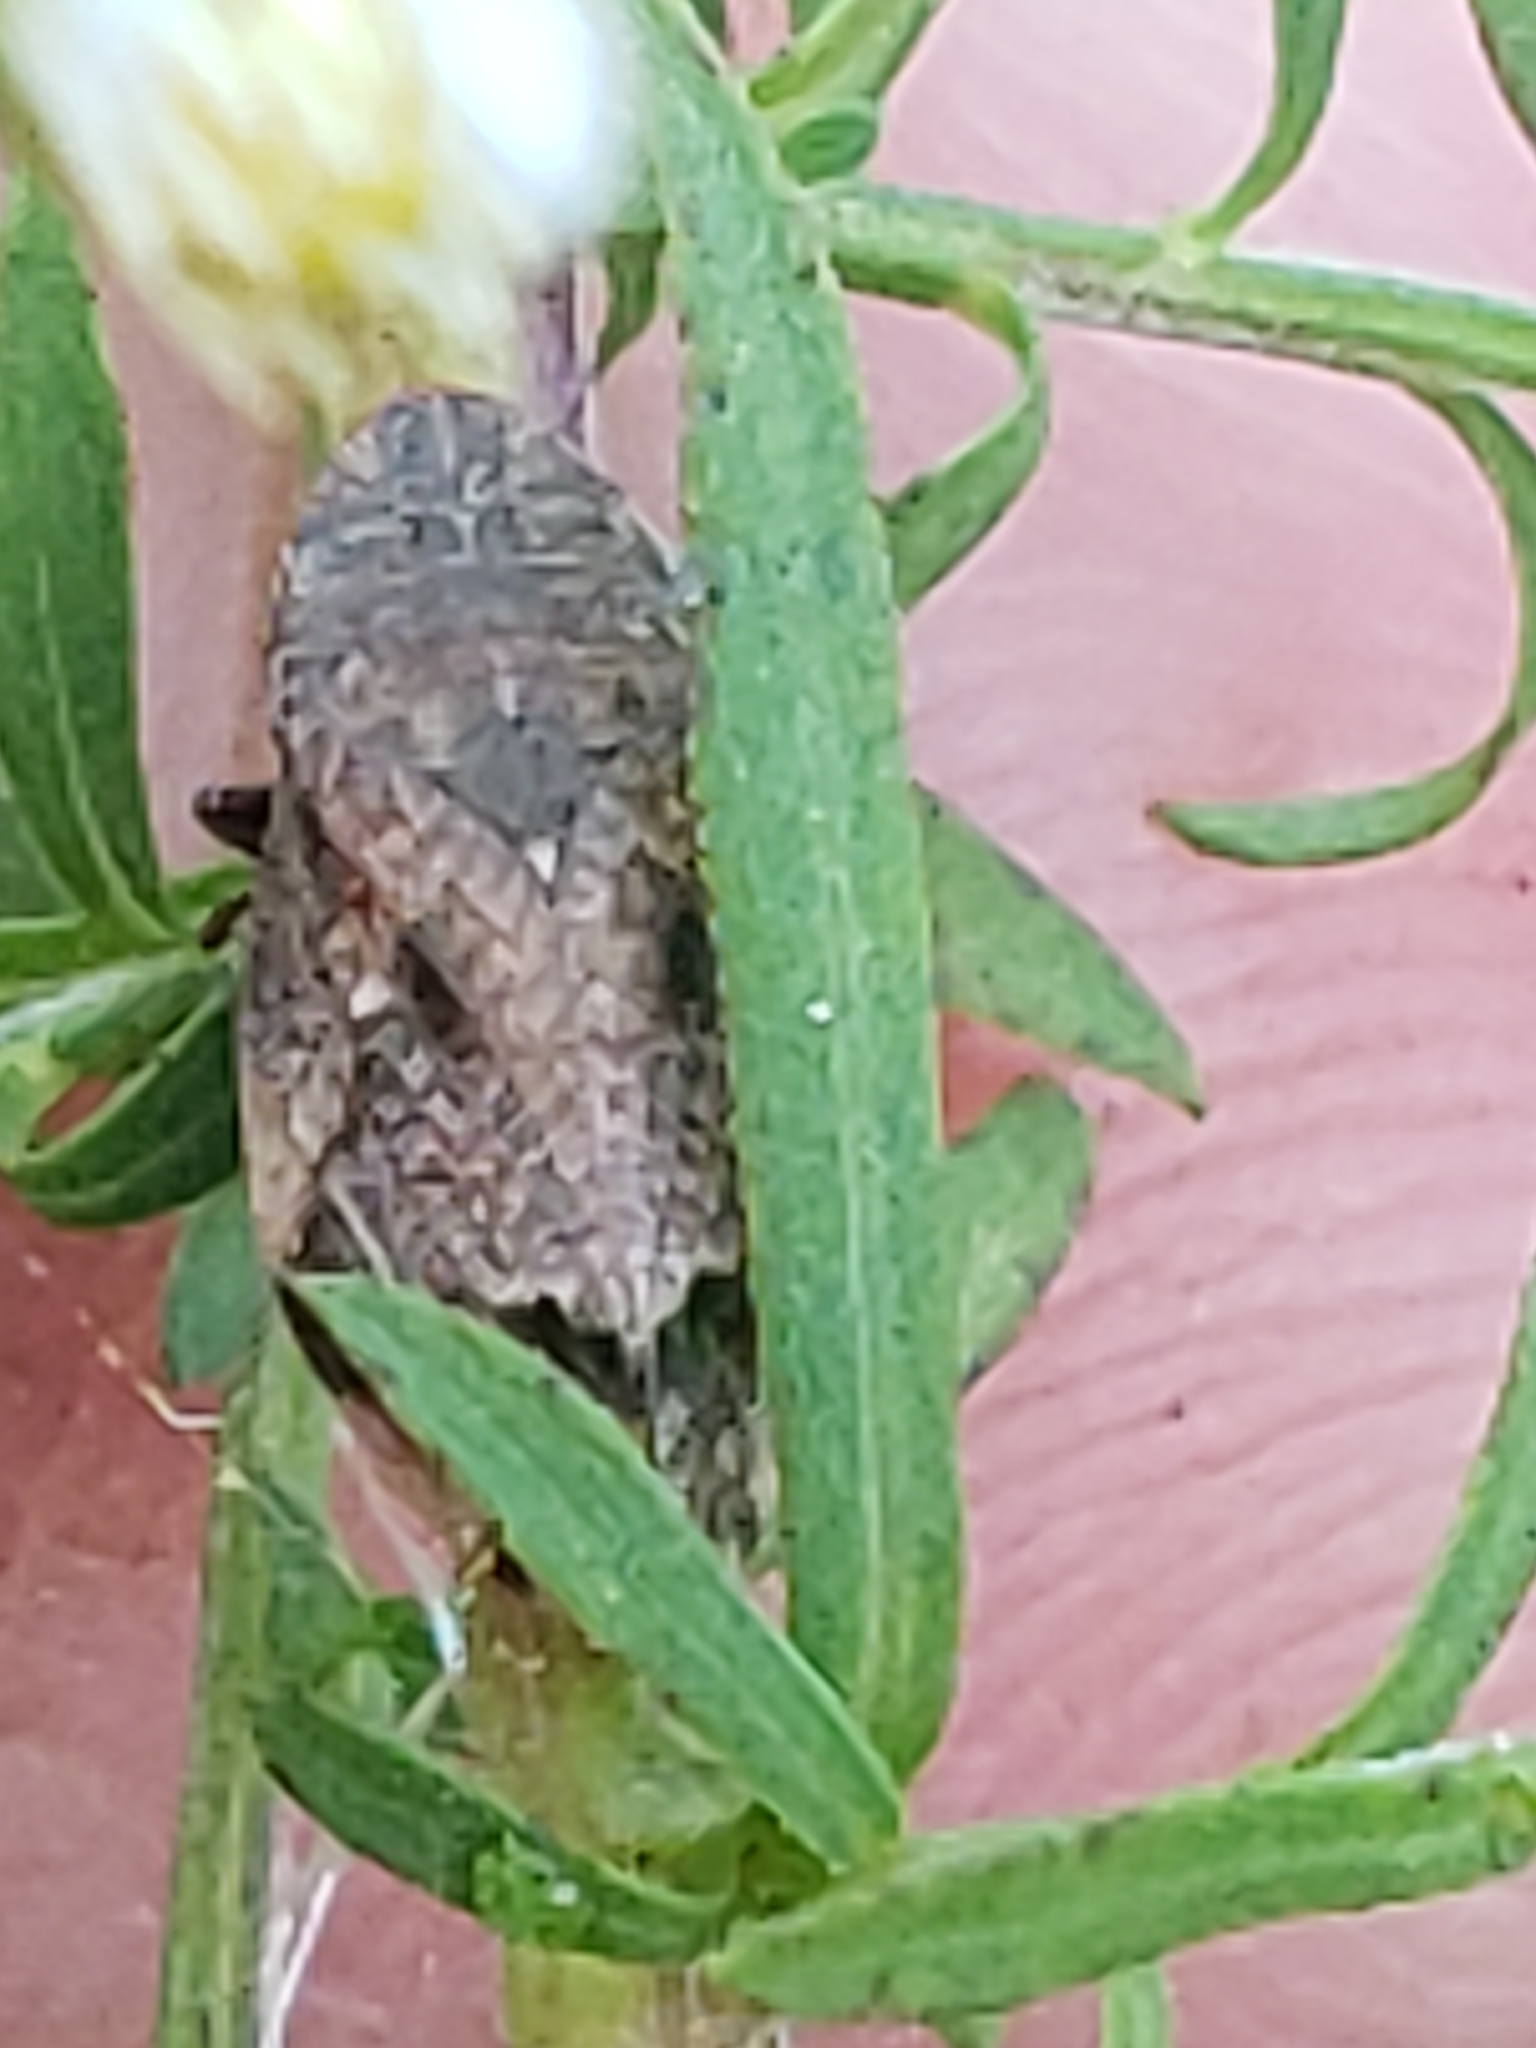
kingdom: Animalia
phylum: Arthropoda
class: Insecta
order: Hemiptera
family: Aphrophoridae
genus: Lepyronia
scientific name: Lepyronia quadrangularis
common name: Diamond-backed spittlebug
